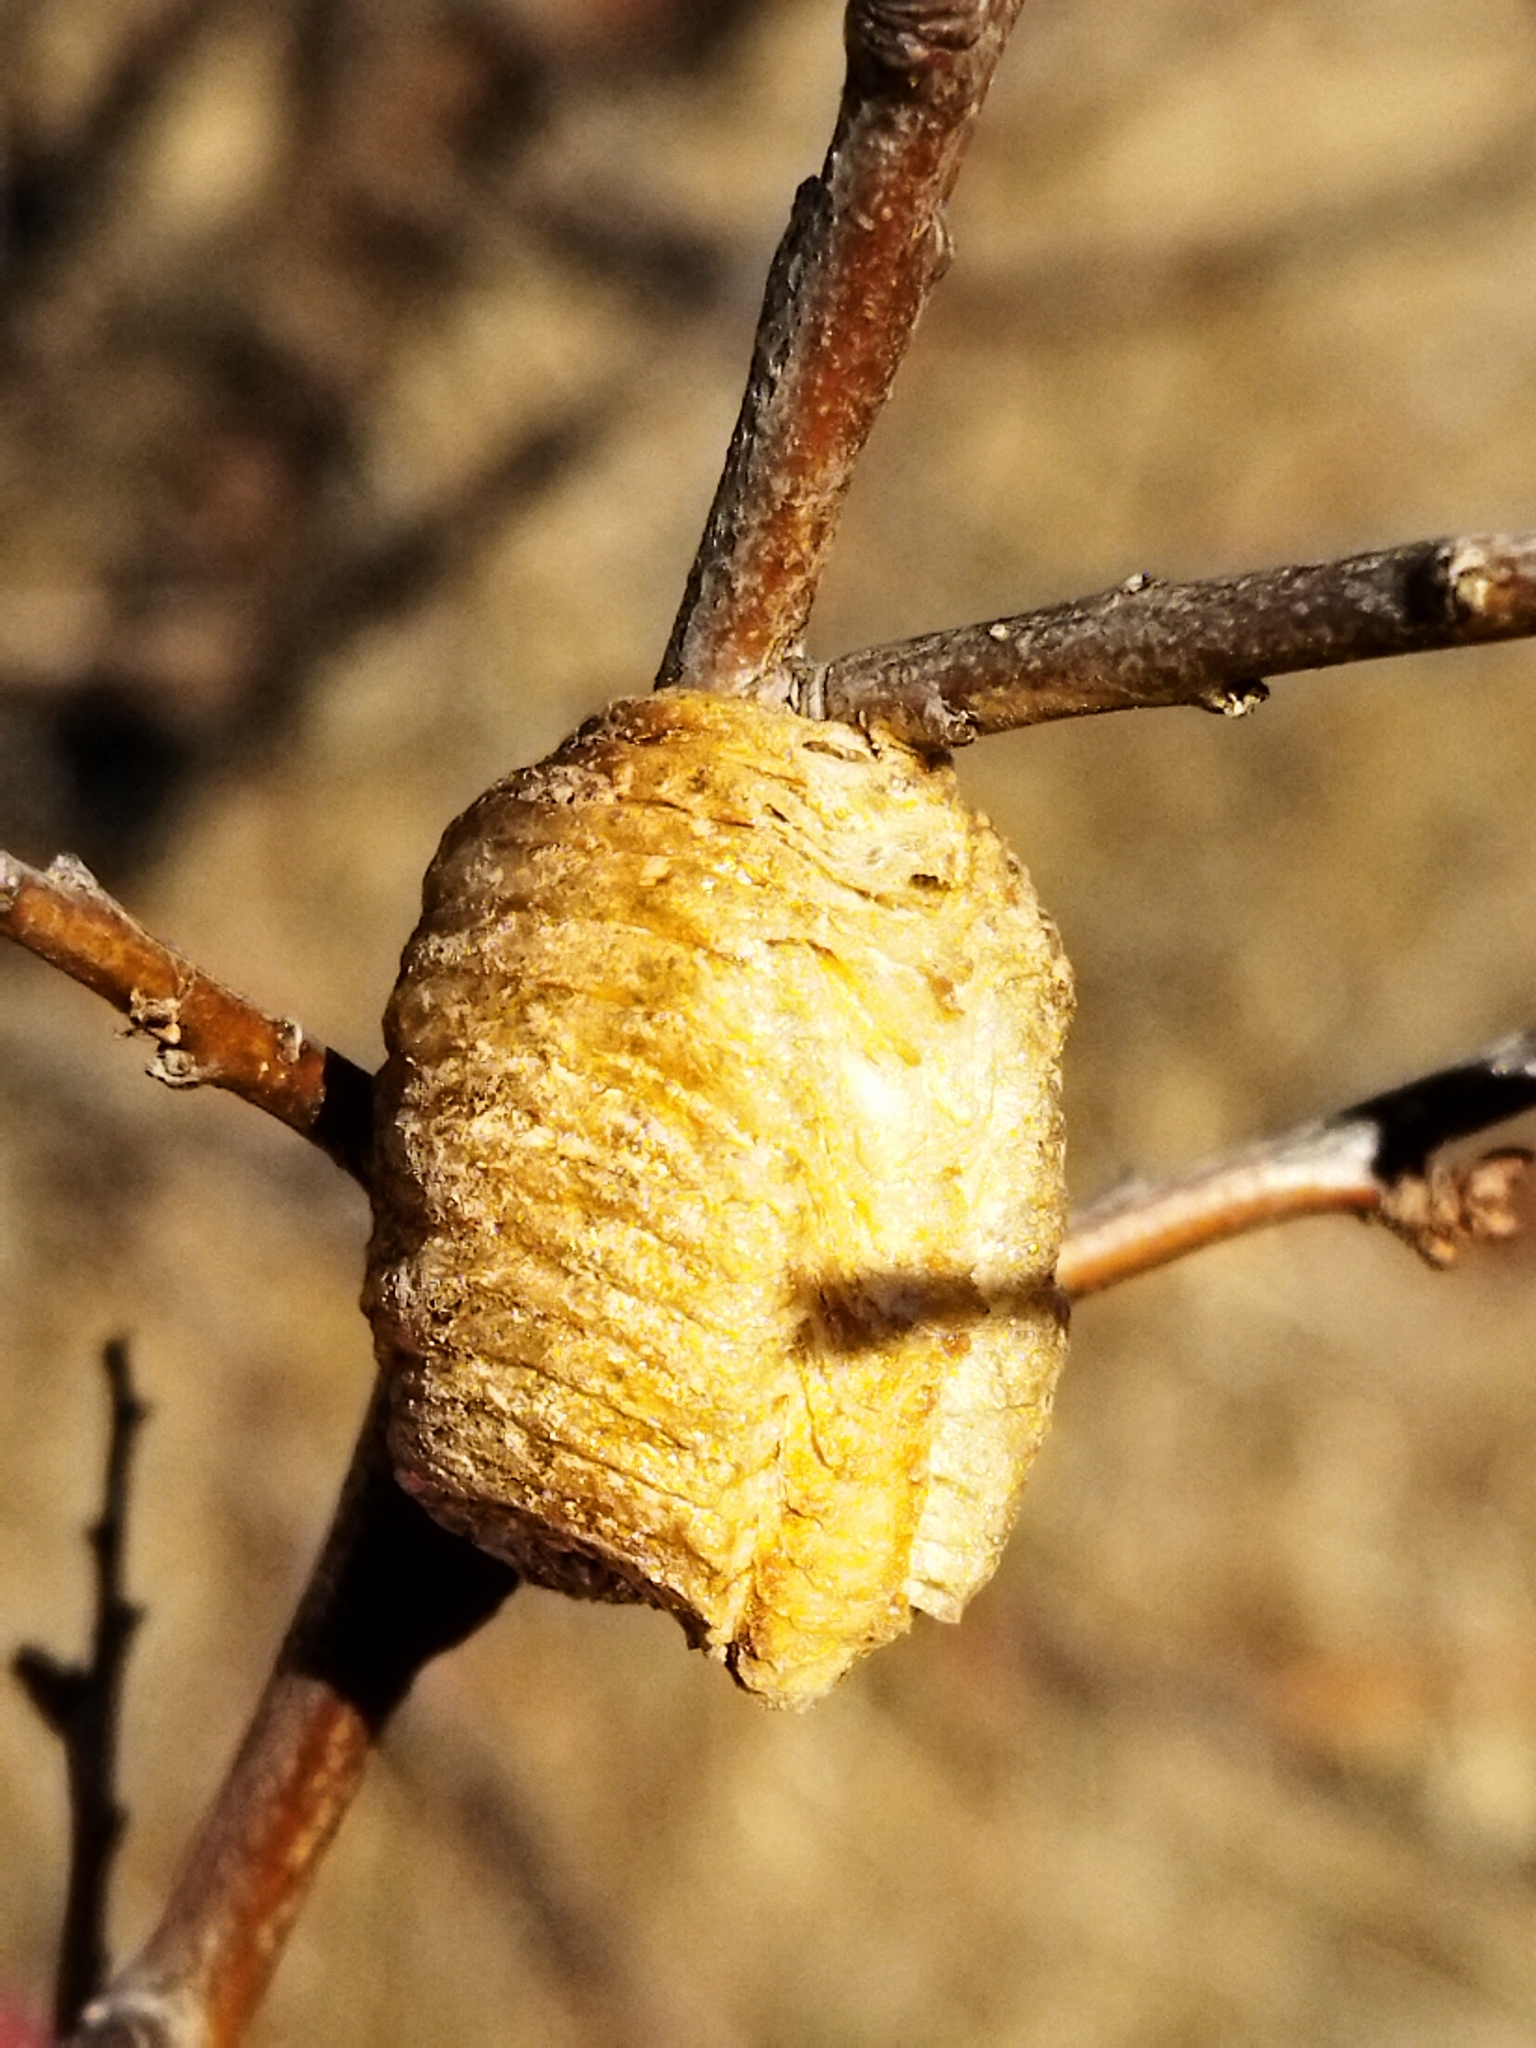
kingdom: Animalia
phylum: Arthropoda
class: Insecta
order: Mantodea
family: Mantidae
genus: Hierodula
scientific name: Hierodula transcaucasica
